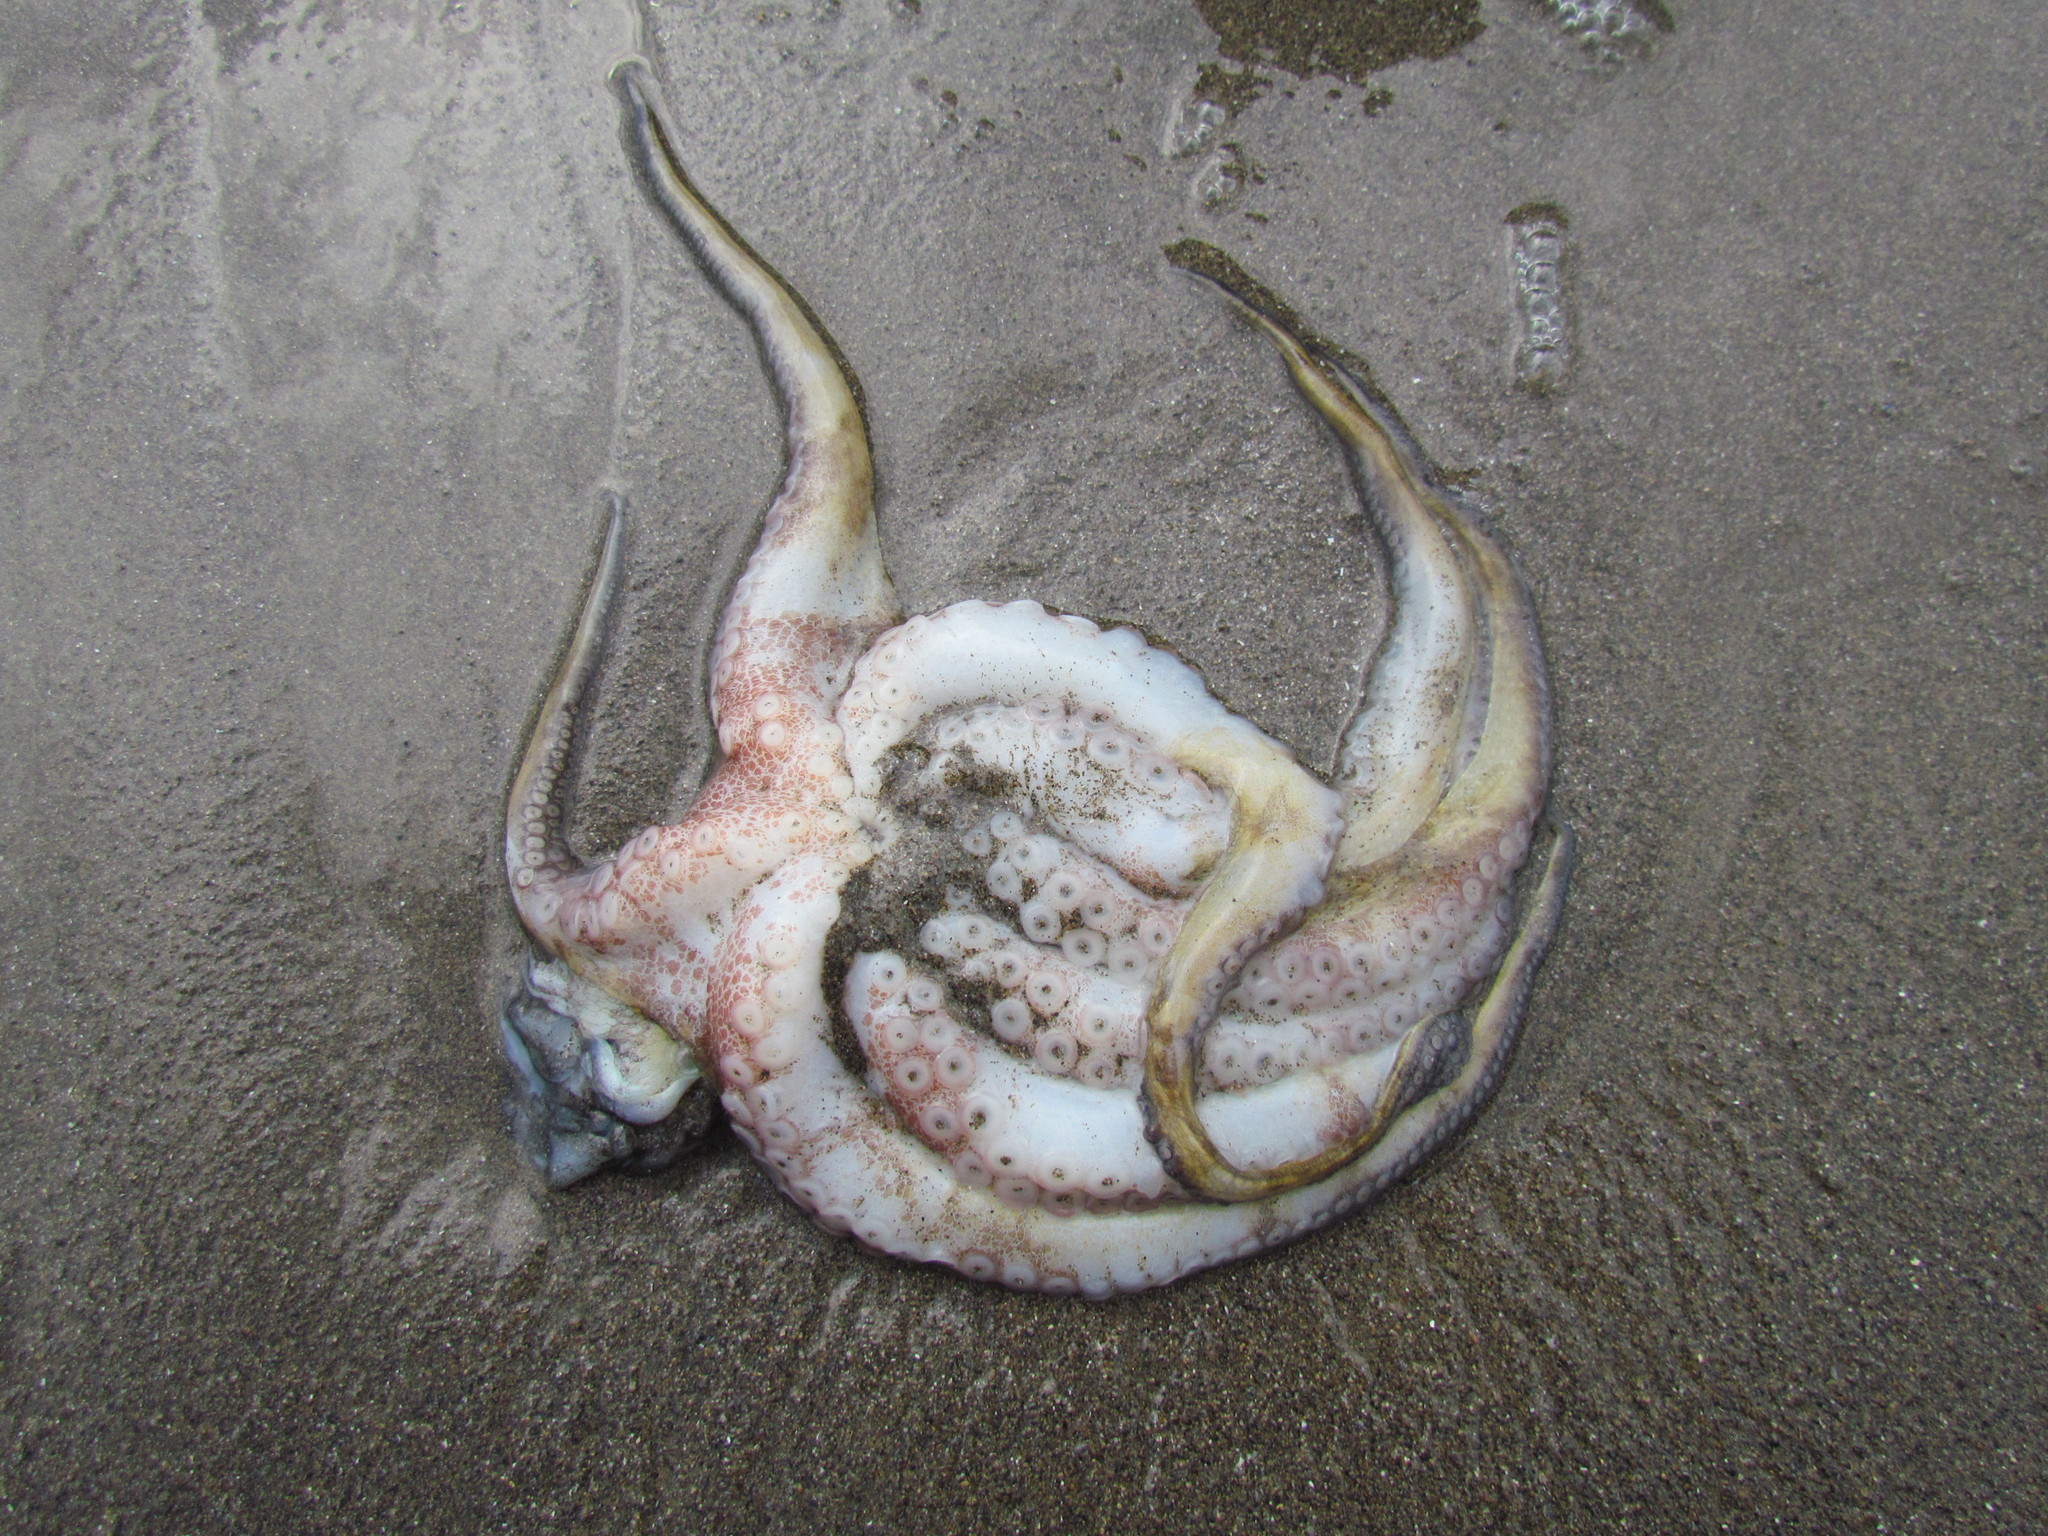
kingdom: Animalia
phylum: Mollusca
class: Cephalopoda
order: Octopoda
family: Octopodidae
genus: Octopus
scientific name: Octopus insularis
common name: Brazil reef octopus
